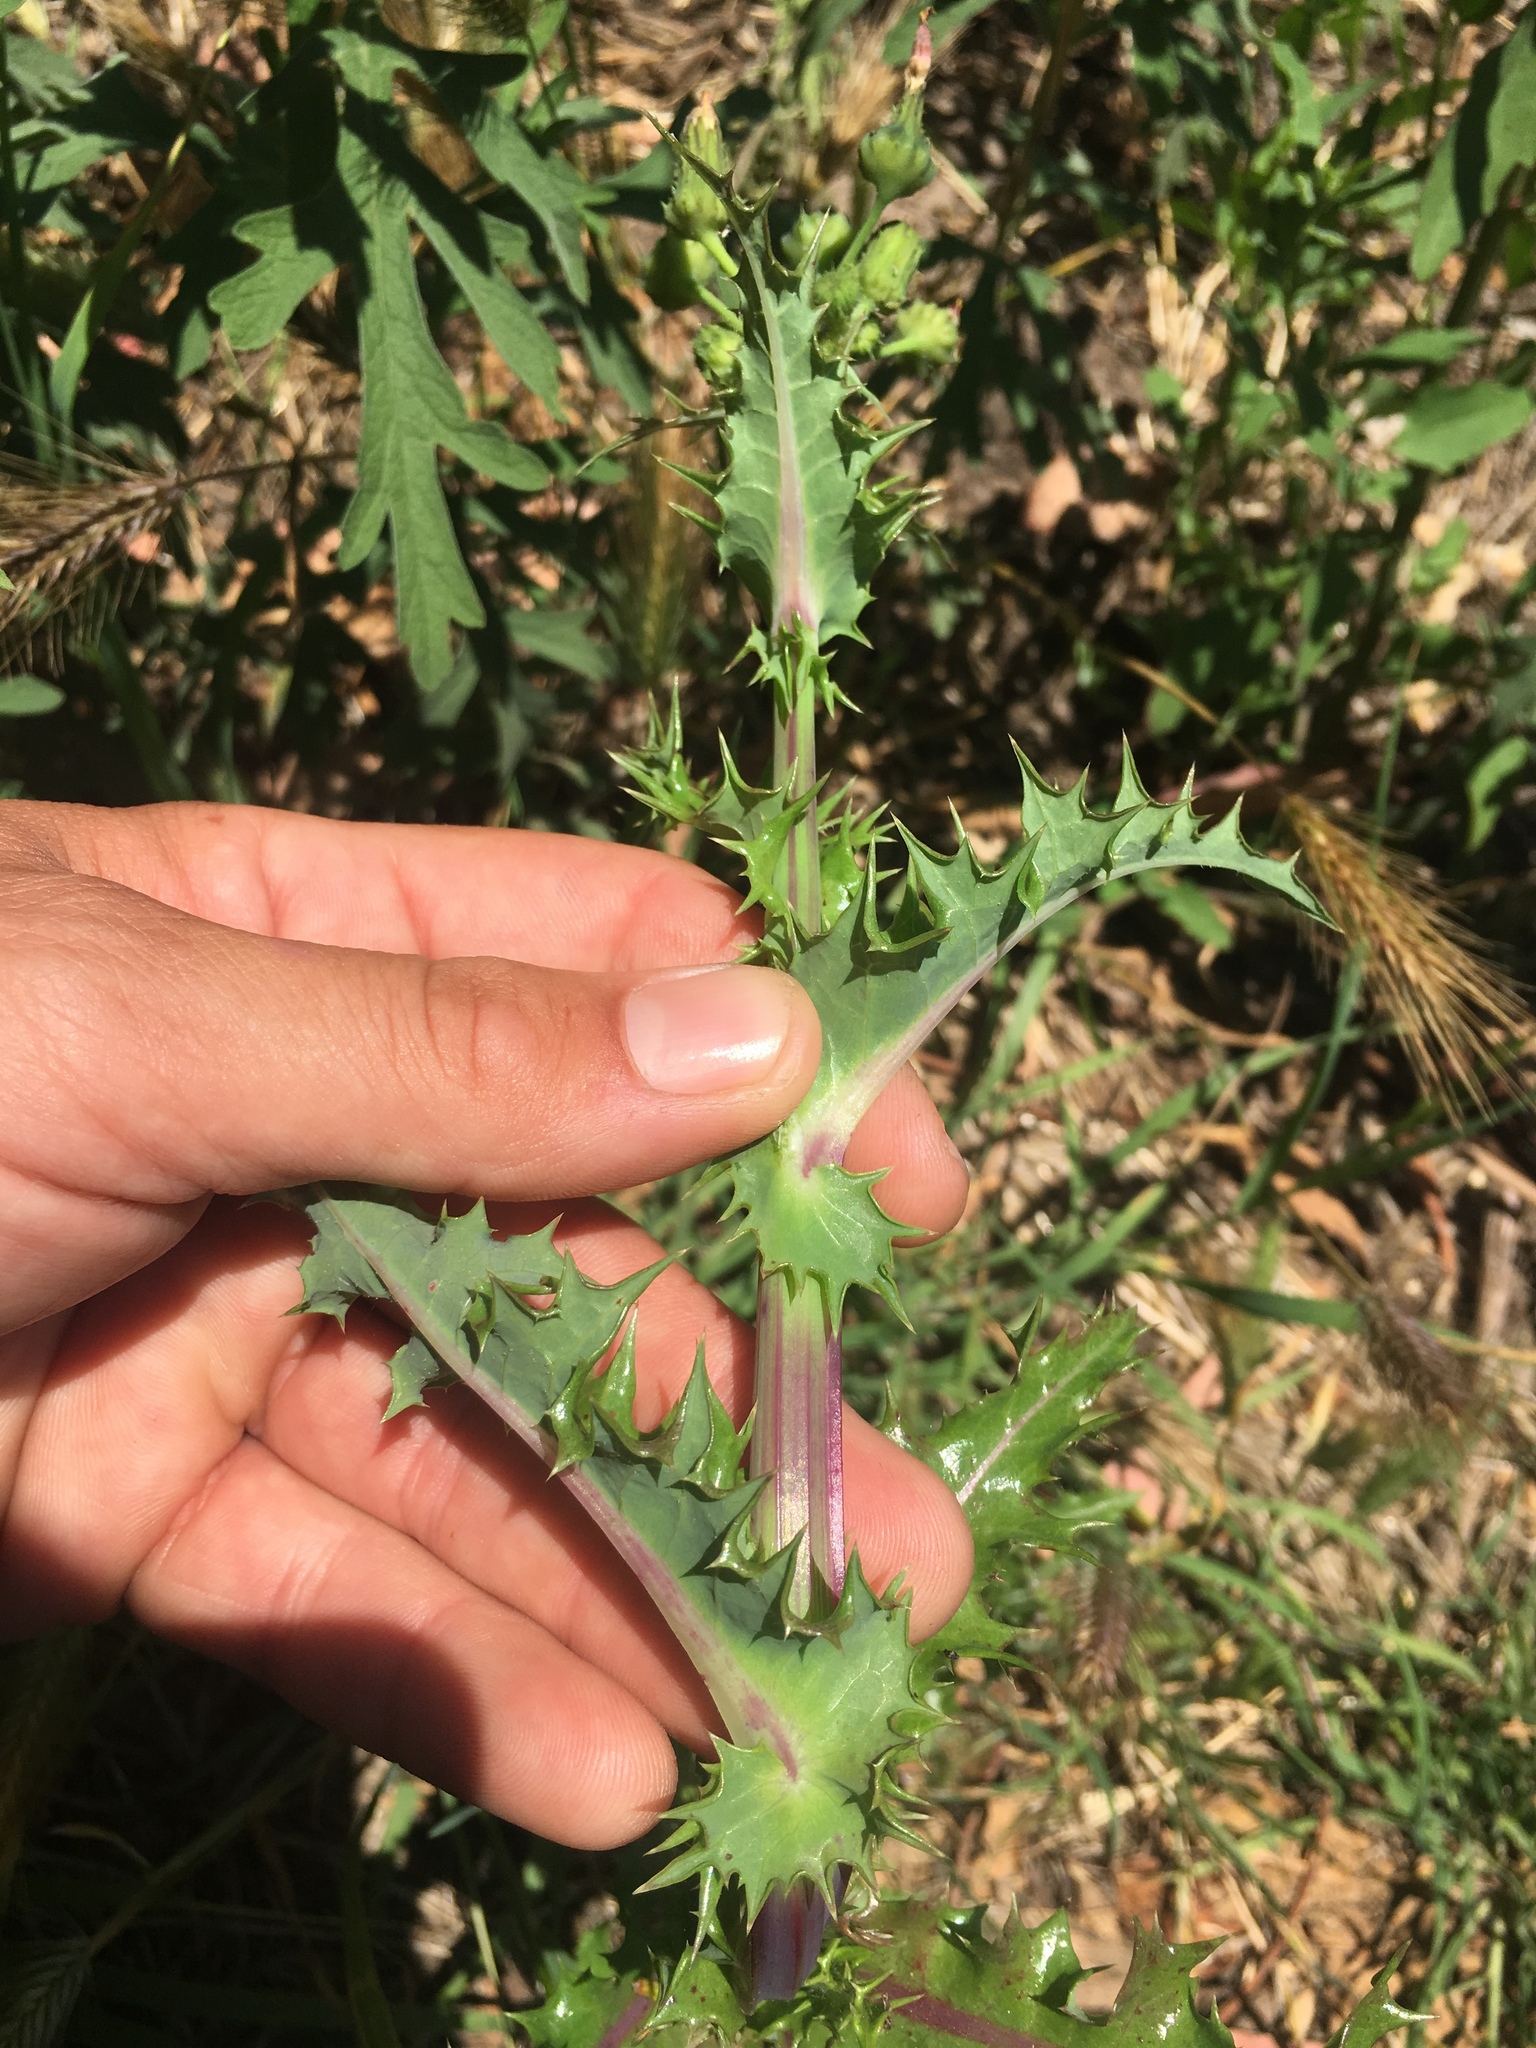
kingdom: Plantae
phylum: Tracheophyta
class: Magnoliopsida
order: Asterales
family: Asteraceae
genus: Sonchus
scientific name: Sonchus asper
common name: Prickly sow-thistle
